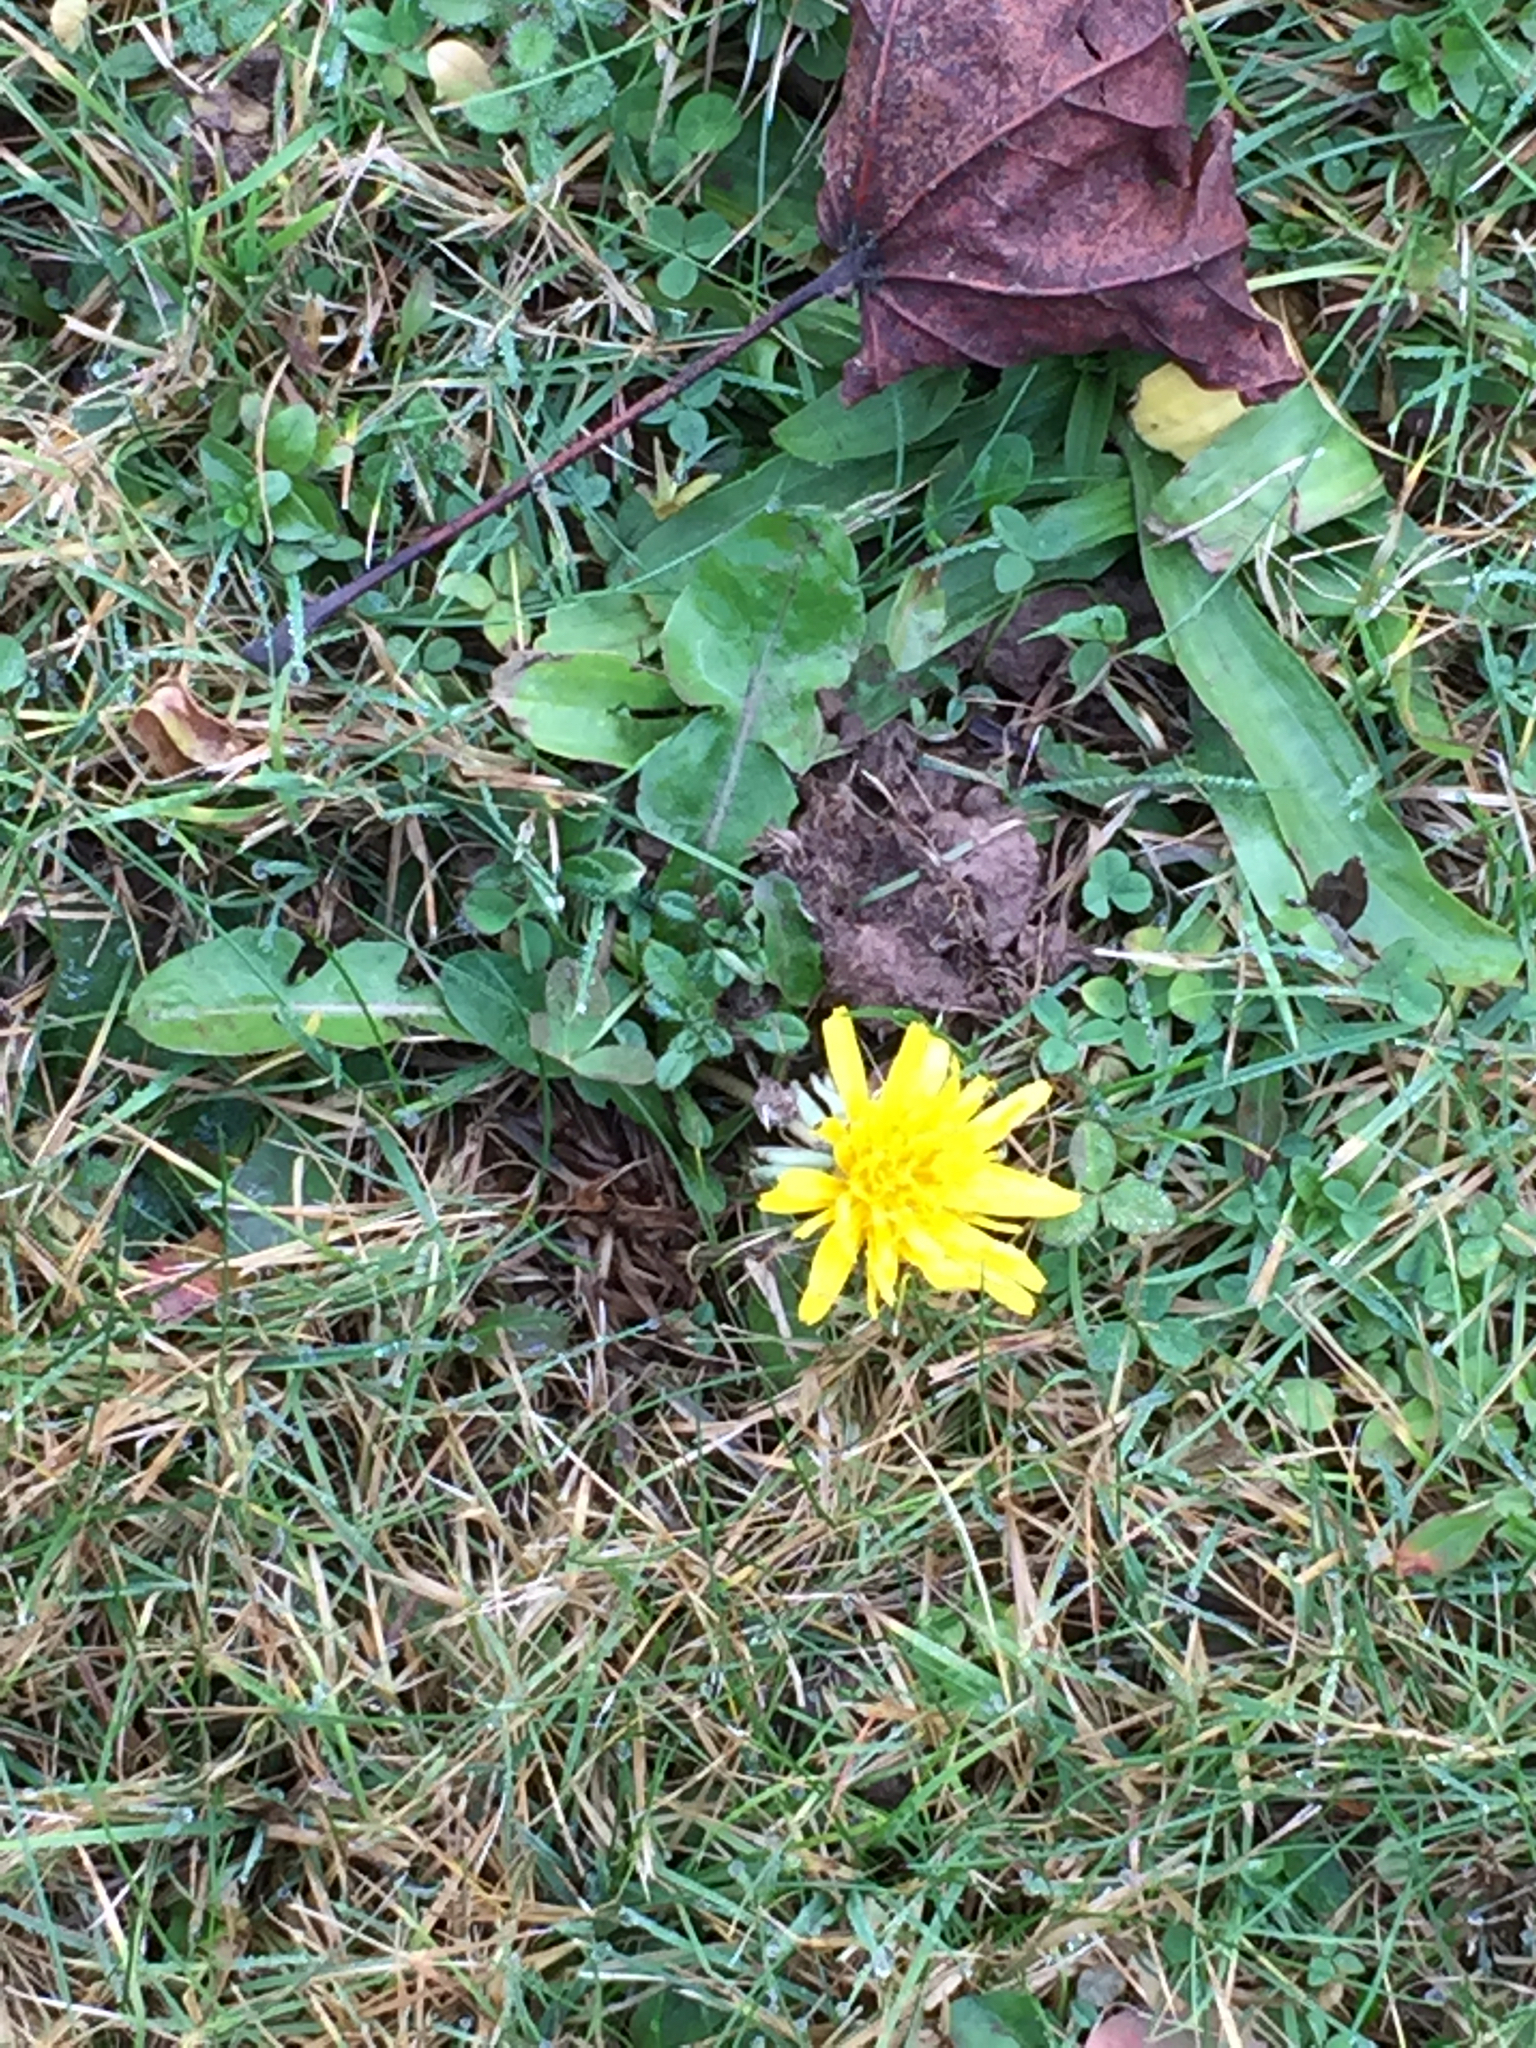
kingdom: Plantae
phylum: Tracheophyta
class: Magnoliopsida
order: Asterales
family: Asteraceae
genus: Taraxacum
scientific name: Taraxacum officinale
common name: Common dandelion
